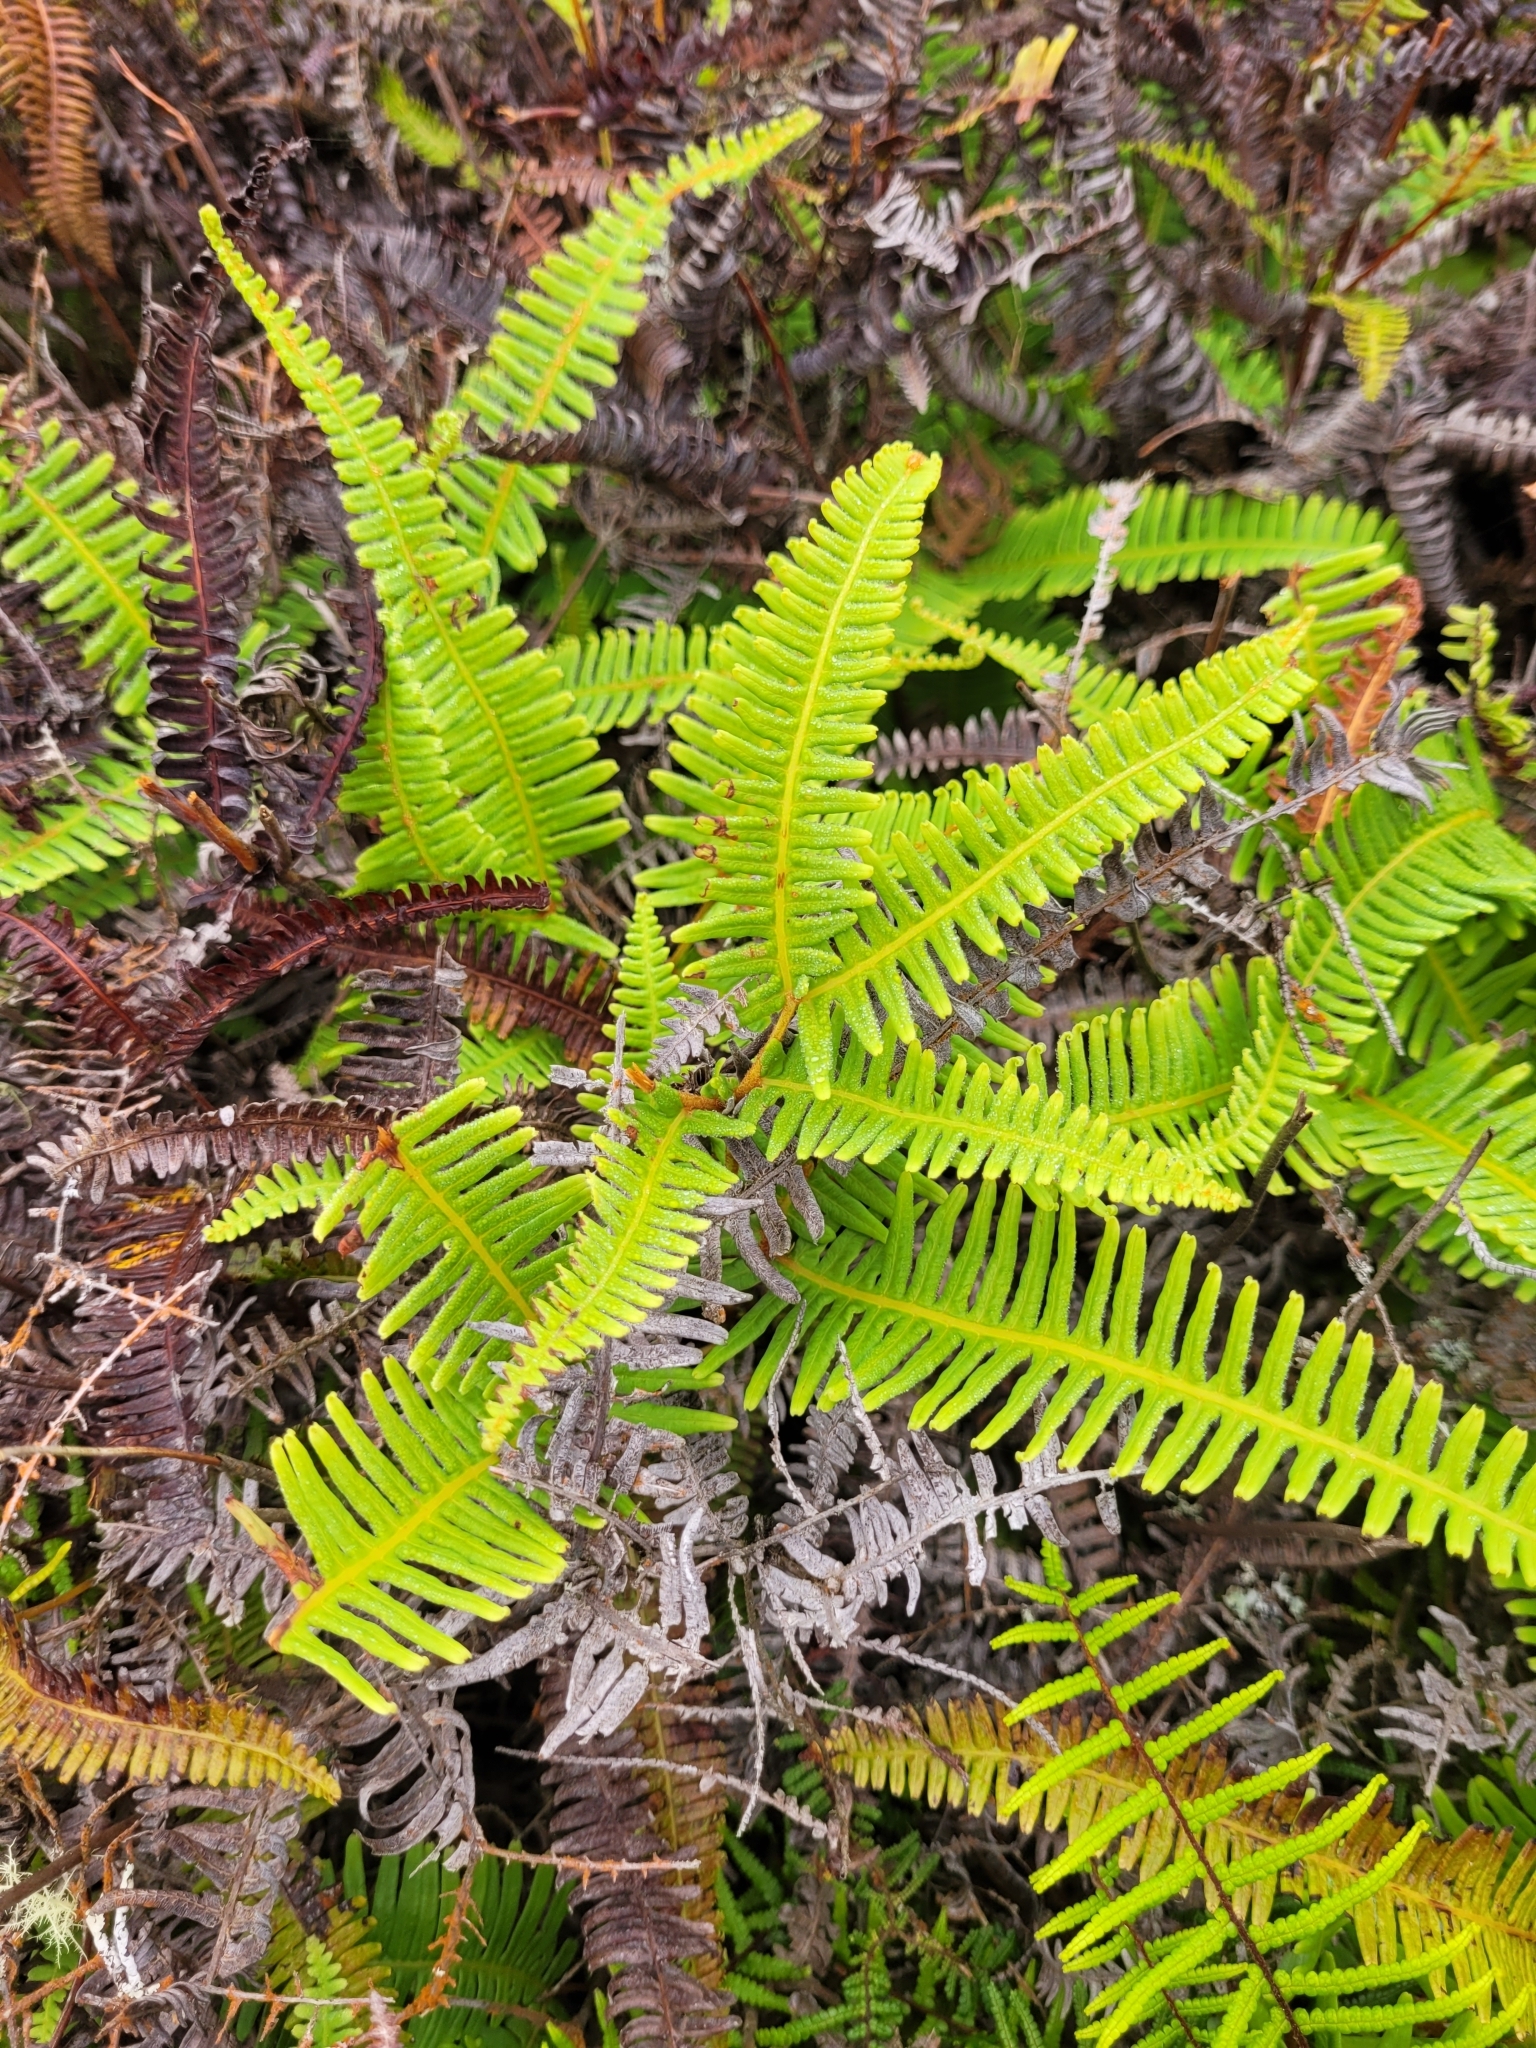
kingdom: Plantae
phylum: Tracheophyta
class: Polypodiopsida
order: Gleicheniales
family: Gleicheniaceae
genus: Dicranopteris
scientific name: Dicranopteris linearis
